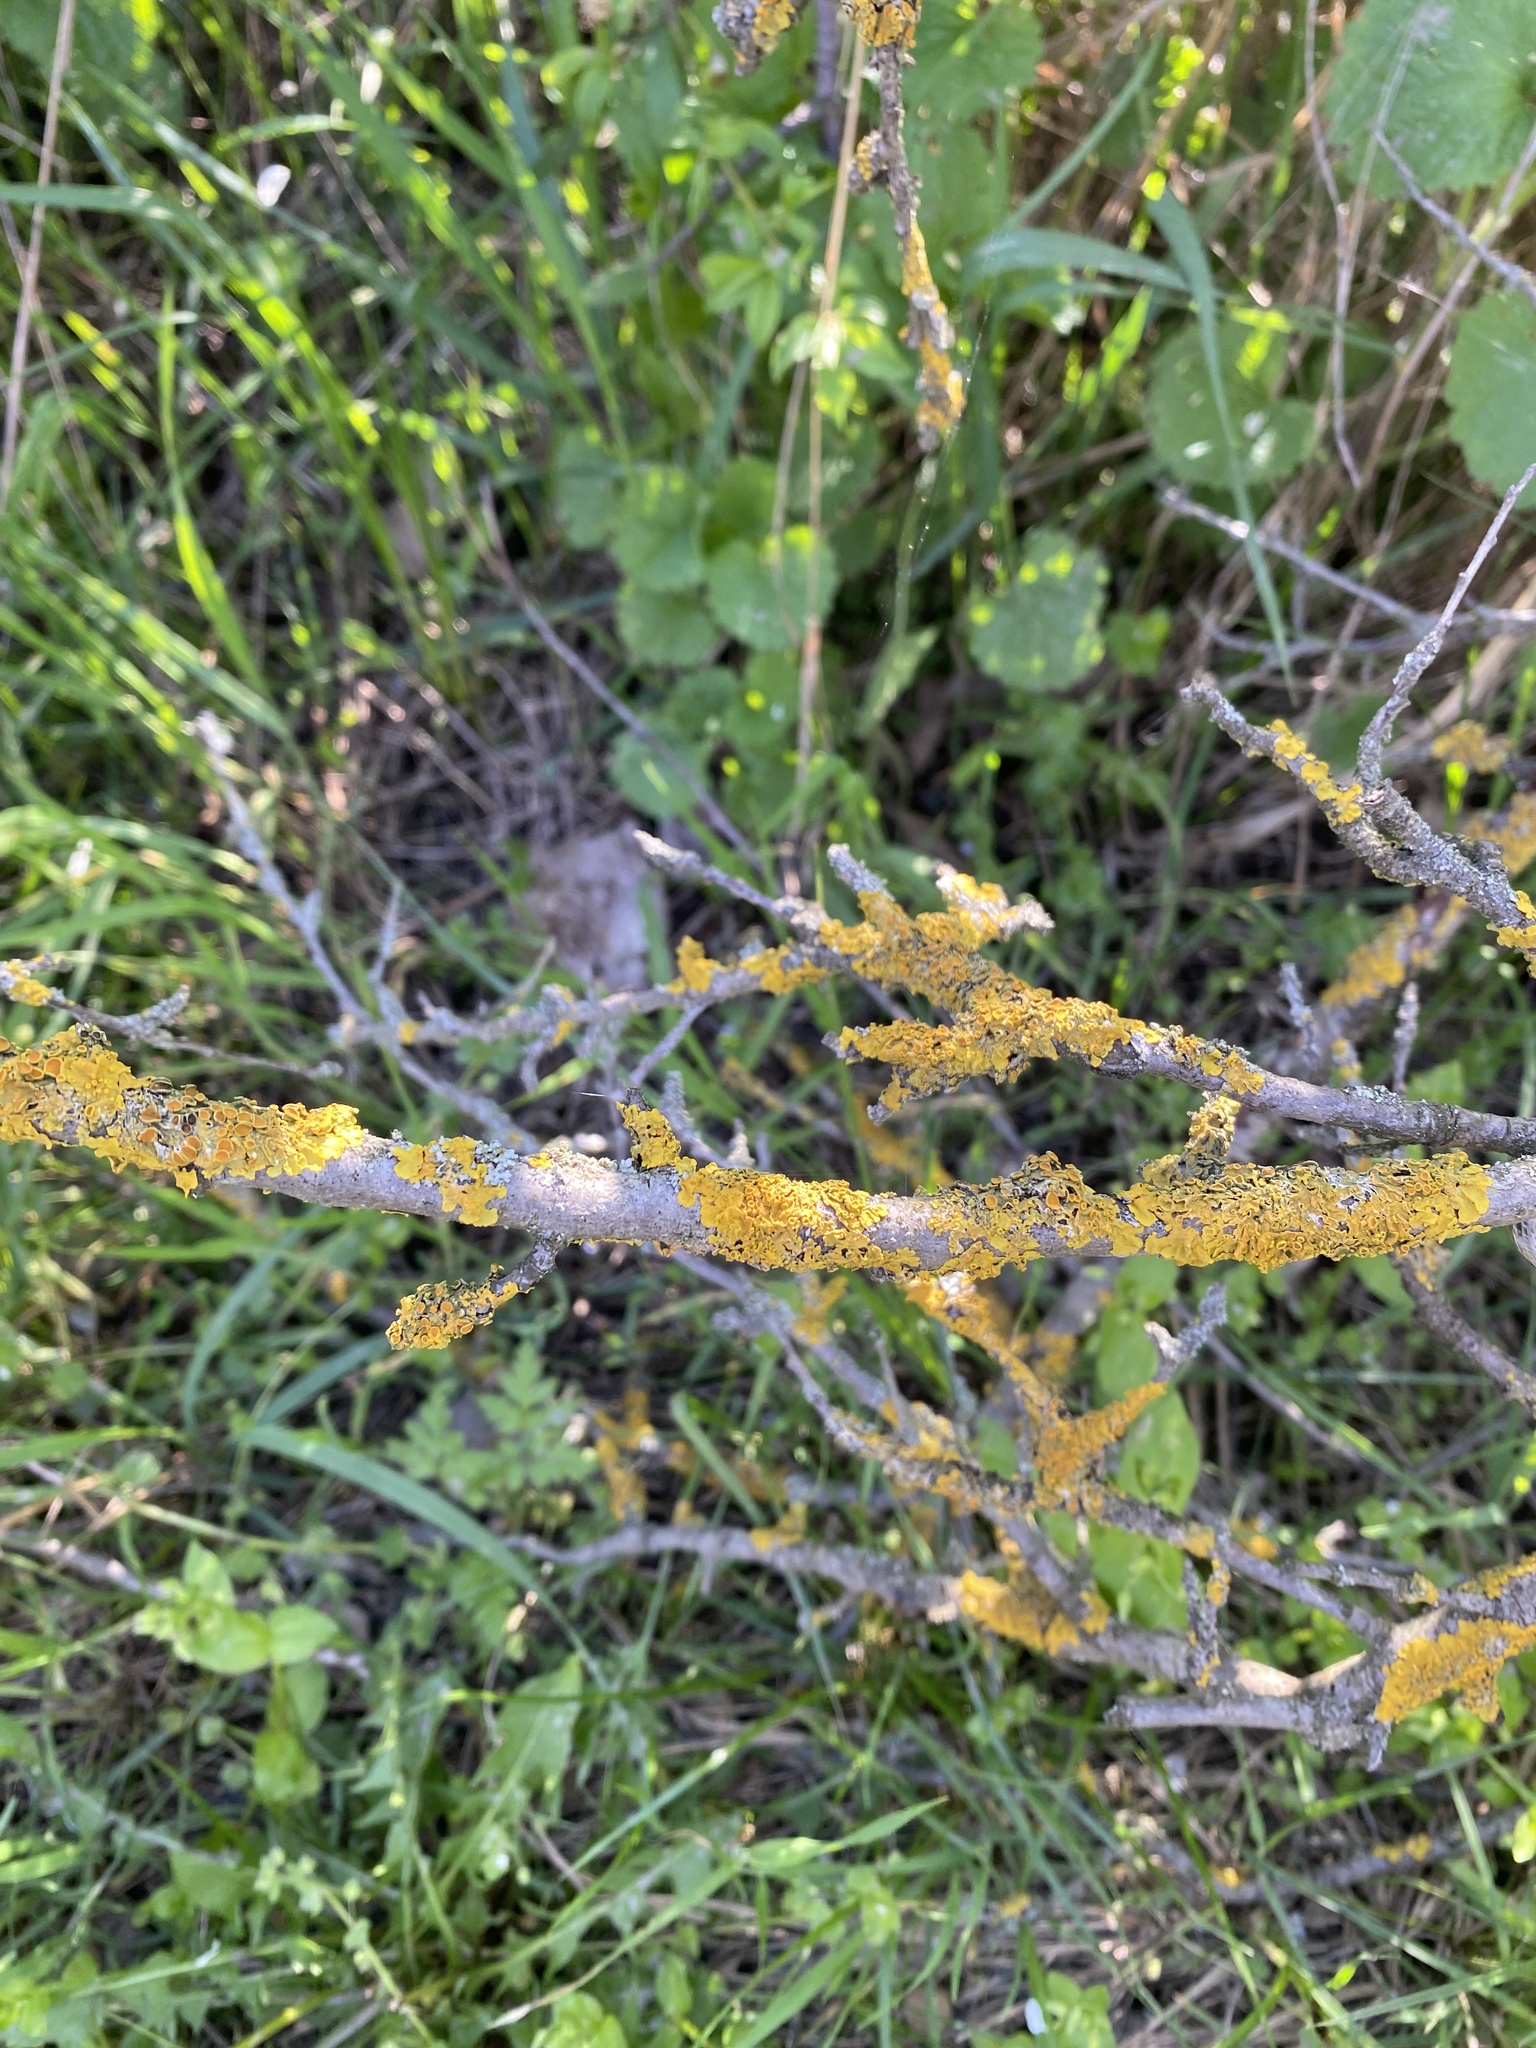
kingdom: Fungi
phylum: Ascomycota
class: Lecanoromycetes
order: Teloschistales
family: Teloschistaceae
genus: Xanthoria
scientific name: Xanthoria parietina
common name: Common orange lichen
